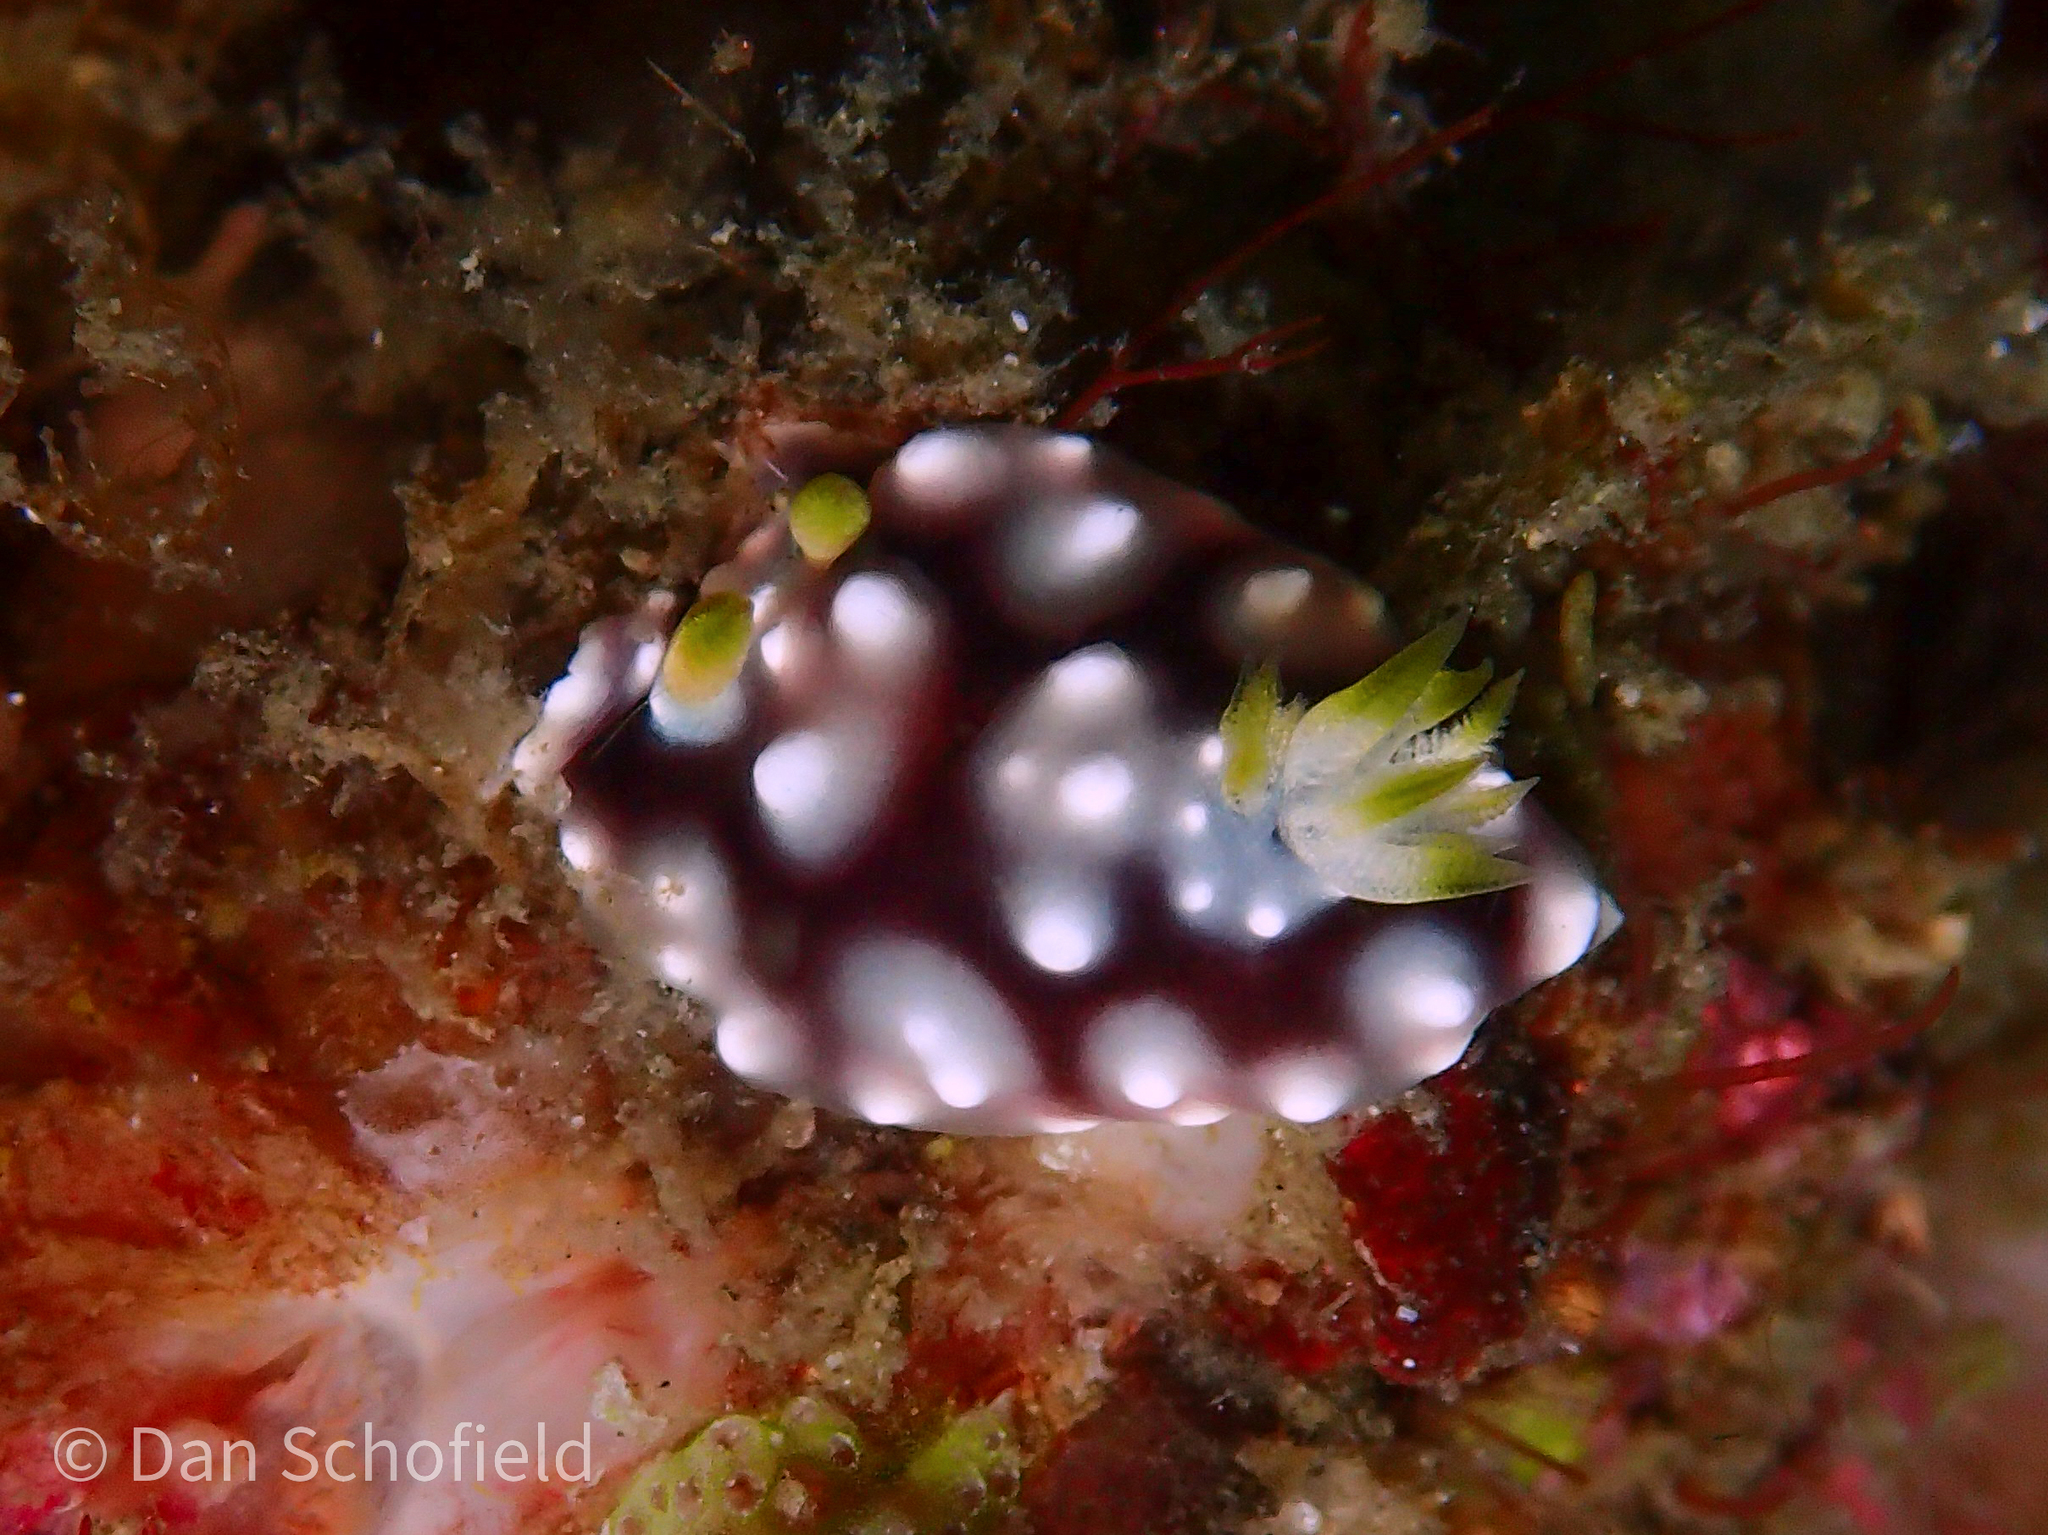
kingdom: Animalia
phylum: Mollusca
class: Gastropoda
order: Nudibranchia
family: Chromodorididae
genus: Goniobranchus
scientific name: Goniobranchus geometricus
